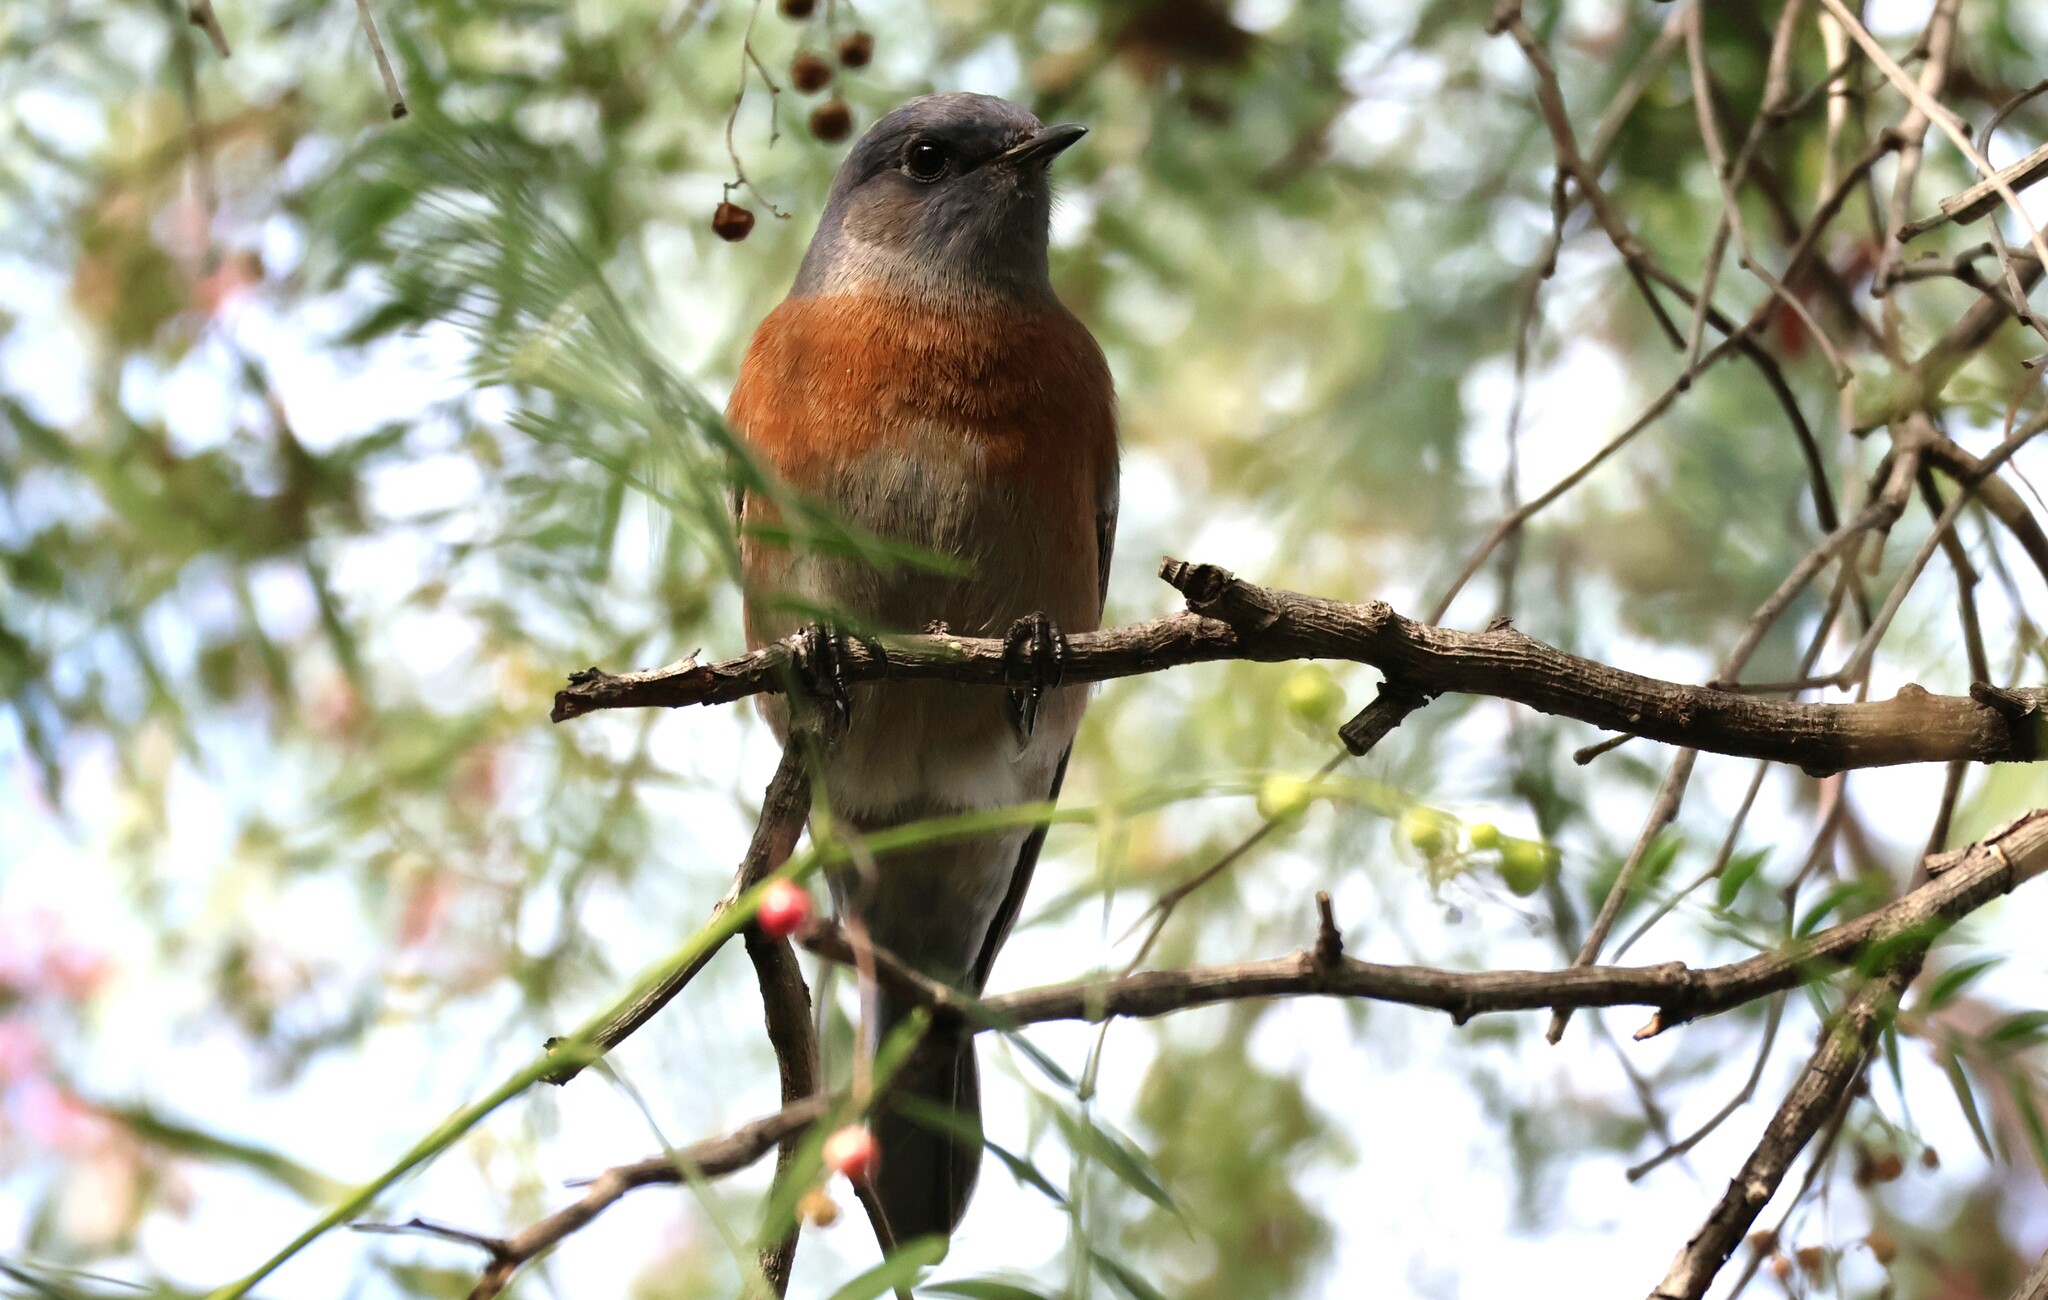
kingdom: Animalia
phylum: Chordata
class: Aves
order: Passeriformes
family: Turdidae
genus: Sialia
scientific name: Sialia mexicana
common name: Western bluebird
